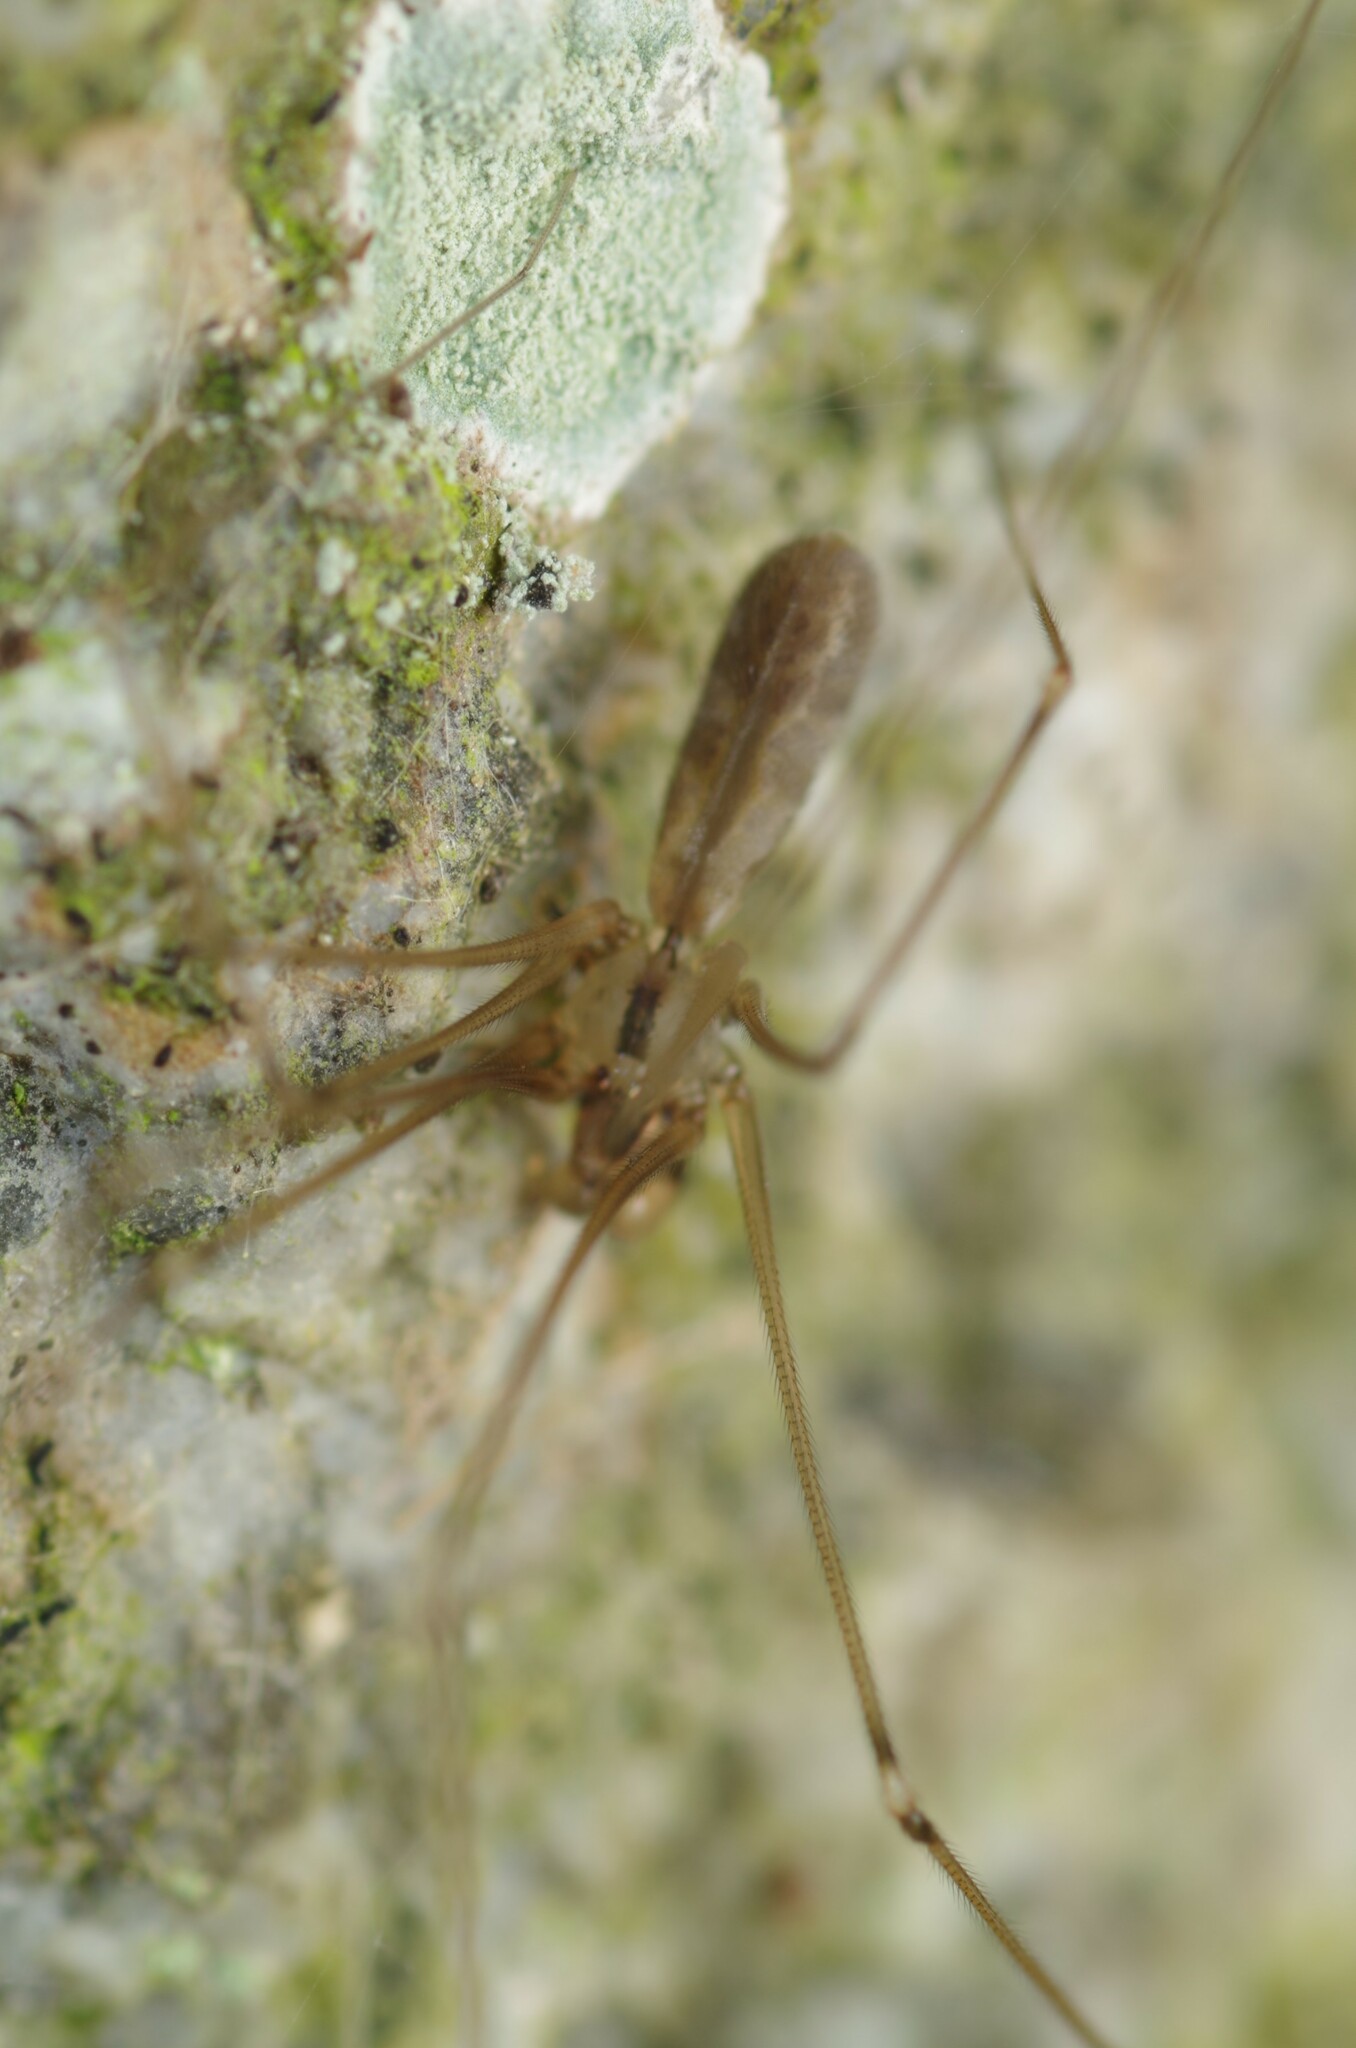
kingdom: Animalia
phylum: Arthropoda
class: Arachnida
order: Araneae
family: Pholcidae
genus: Pholcus
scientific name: Pholcus opilionoides
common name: Daddylongleg spider
